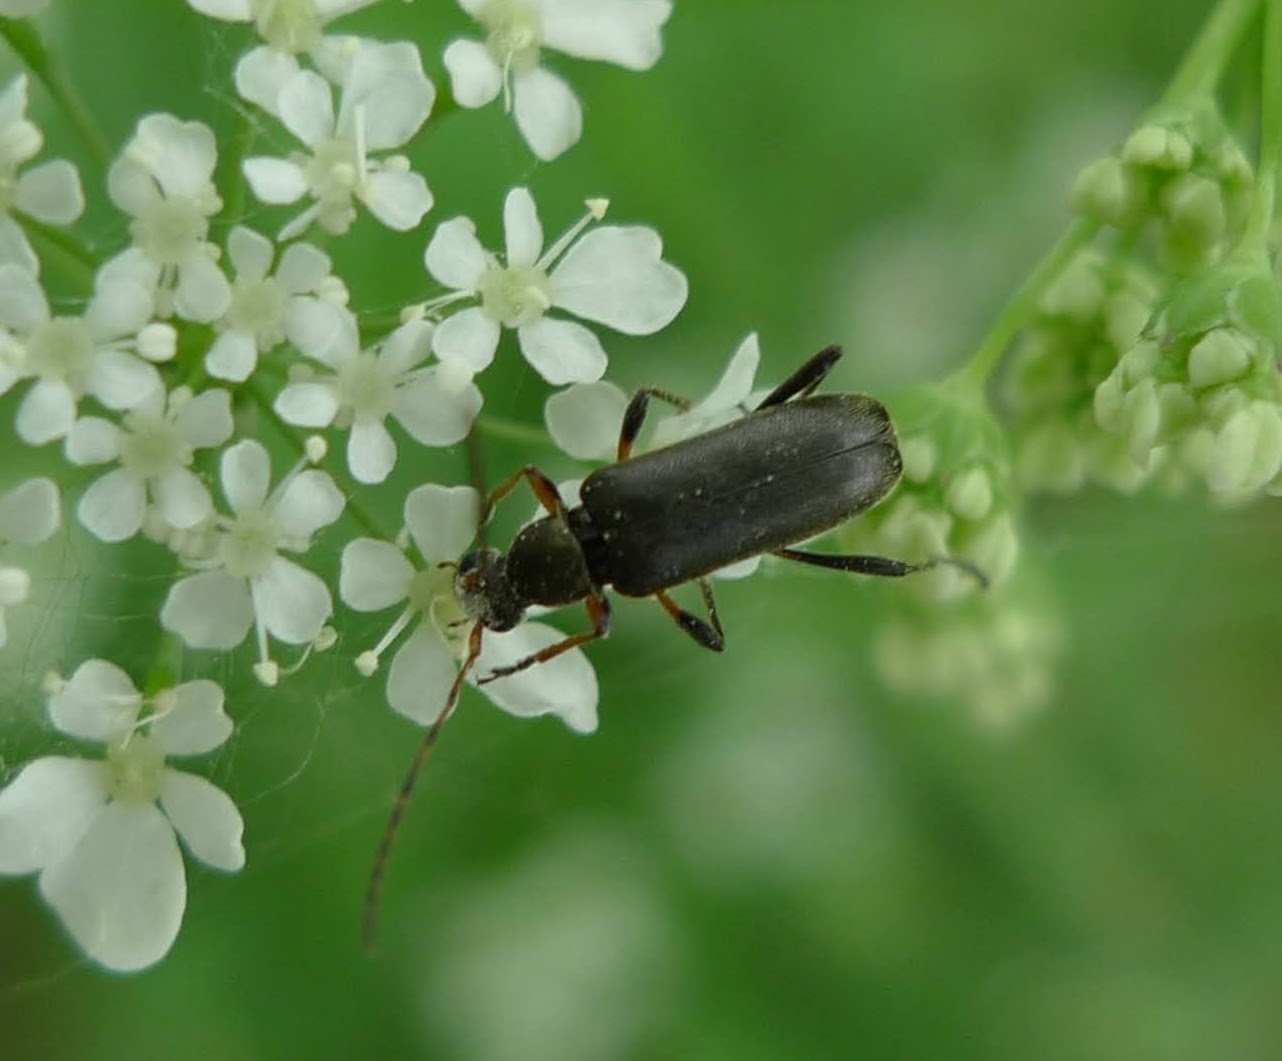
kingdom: Animalia
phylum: Arthropoda
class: Insecta
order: Coleoptera
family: Cerambycidae
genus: Grammoptera
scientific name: Grammoptera ruficornis
